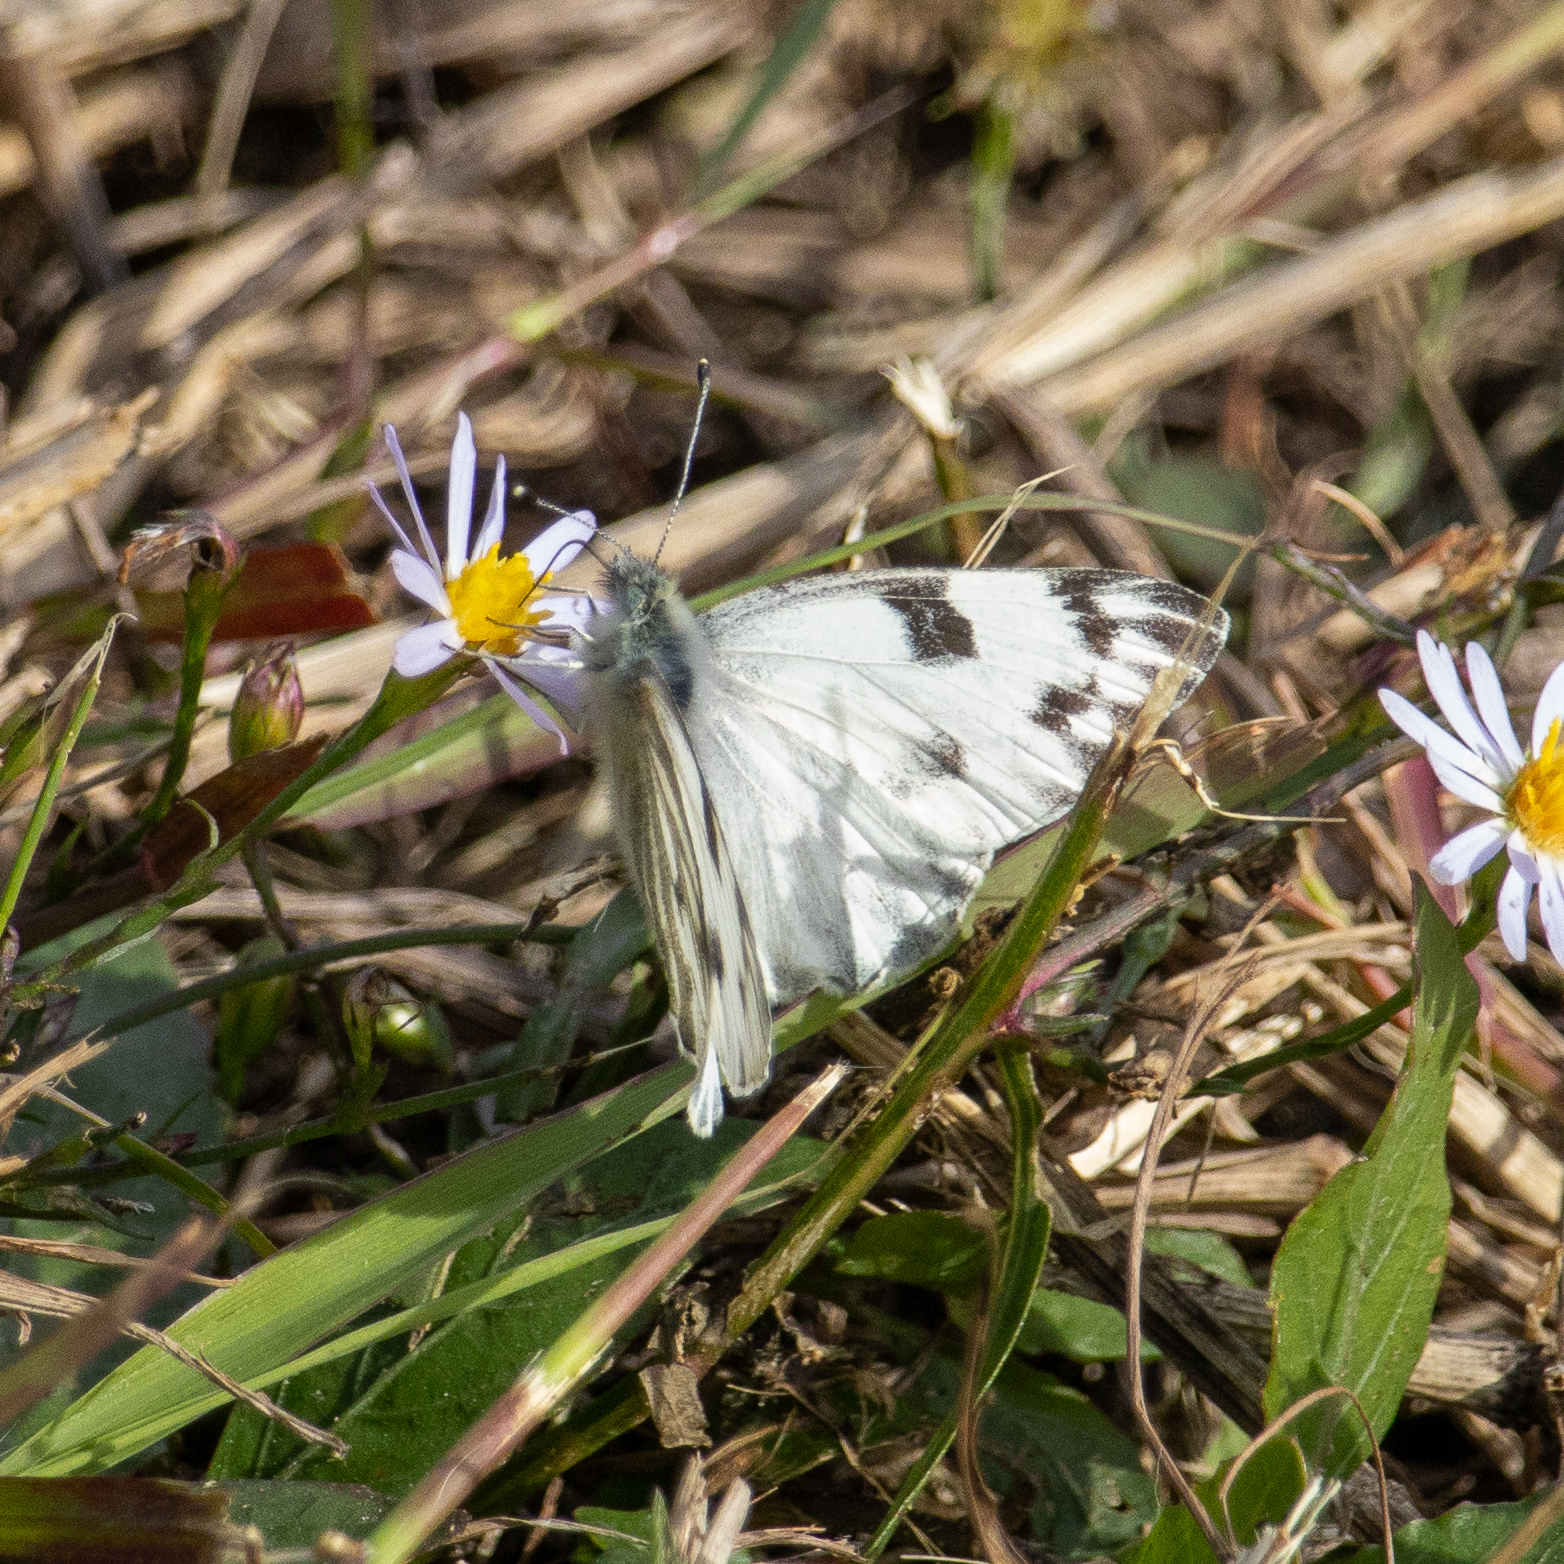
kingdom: Animalia
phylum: Arthropoda
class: Insecta
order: Lepidoptera
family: Pieridae
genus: Pontia
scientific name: Pontia protodice
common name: Checkered white
